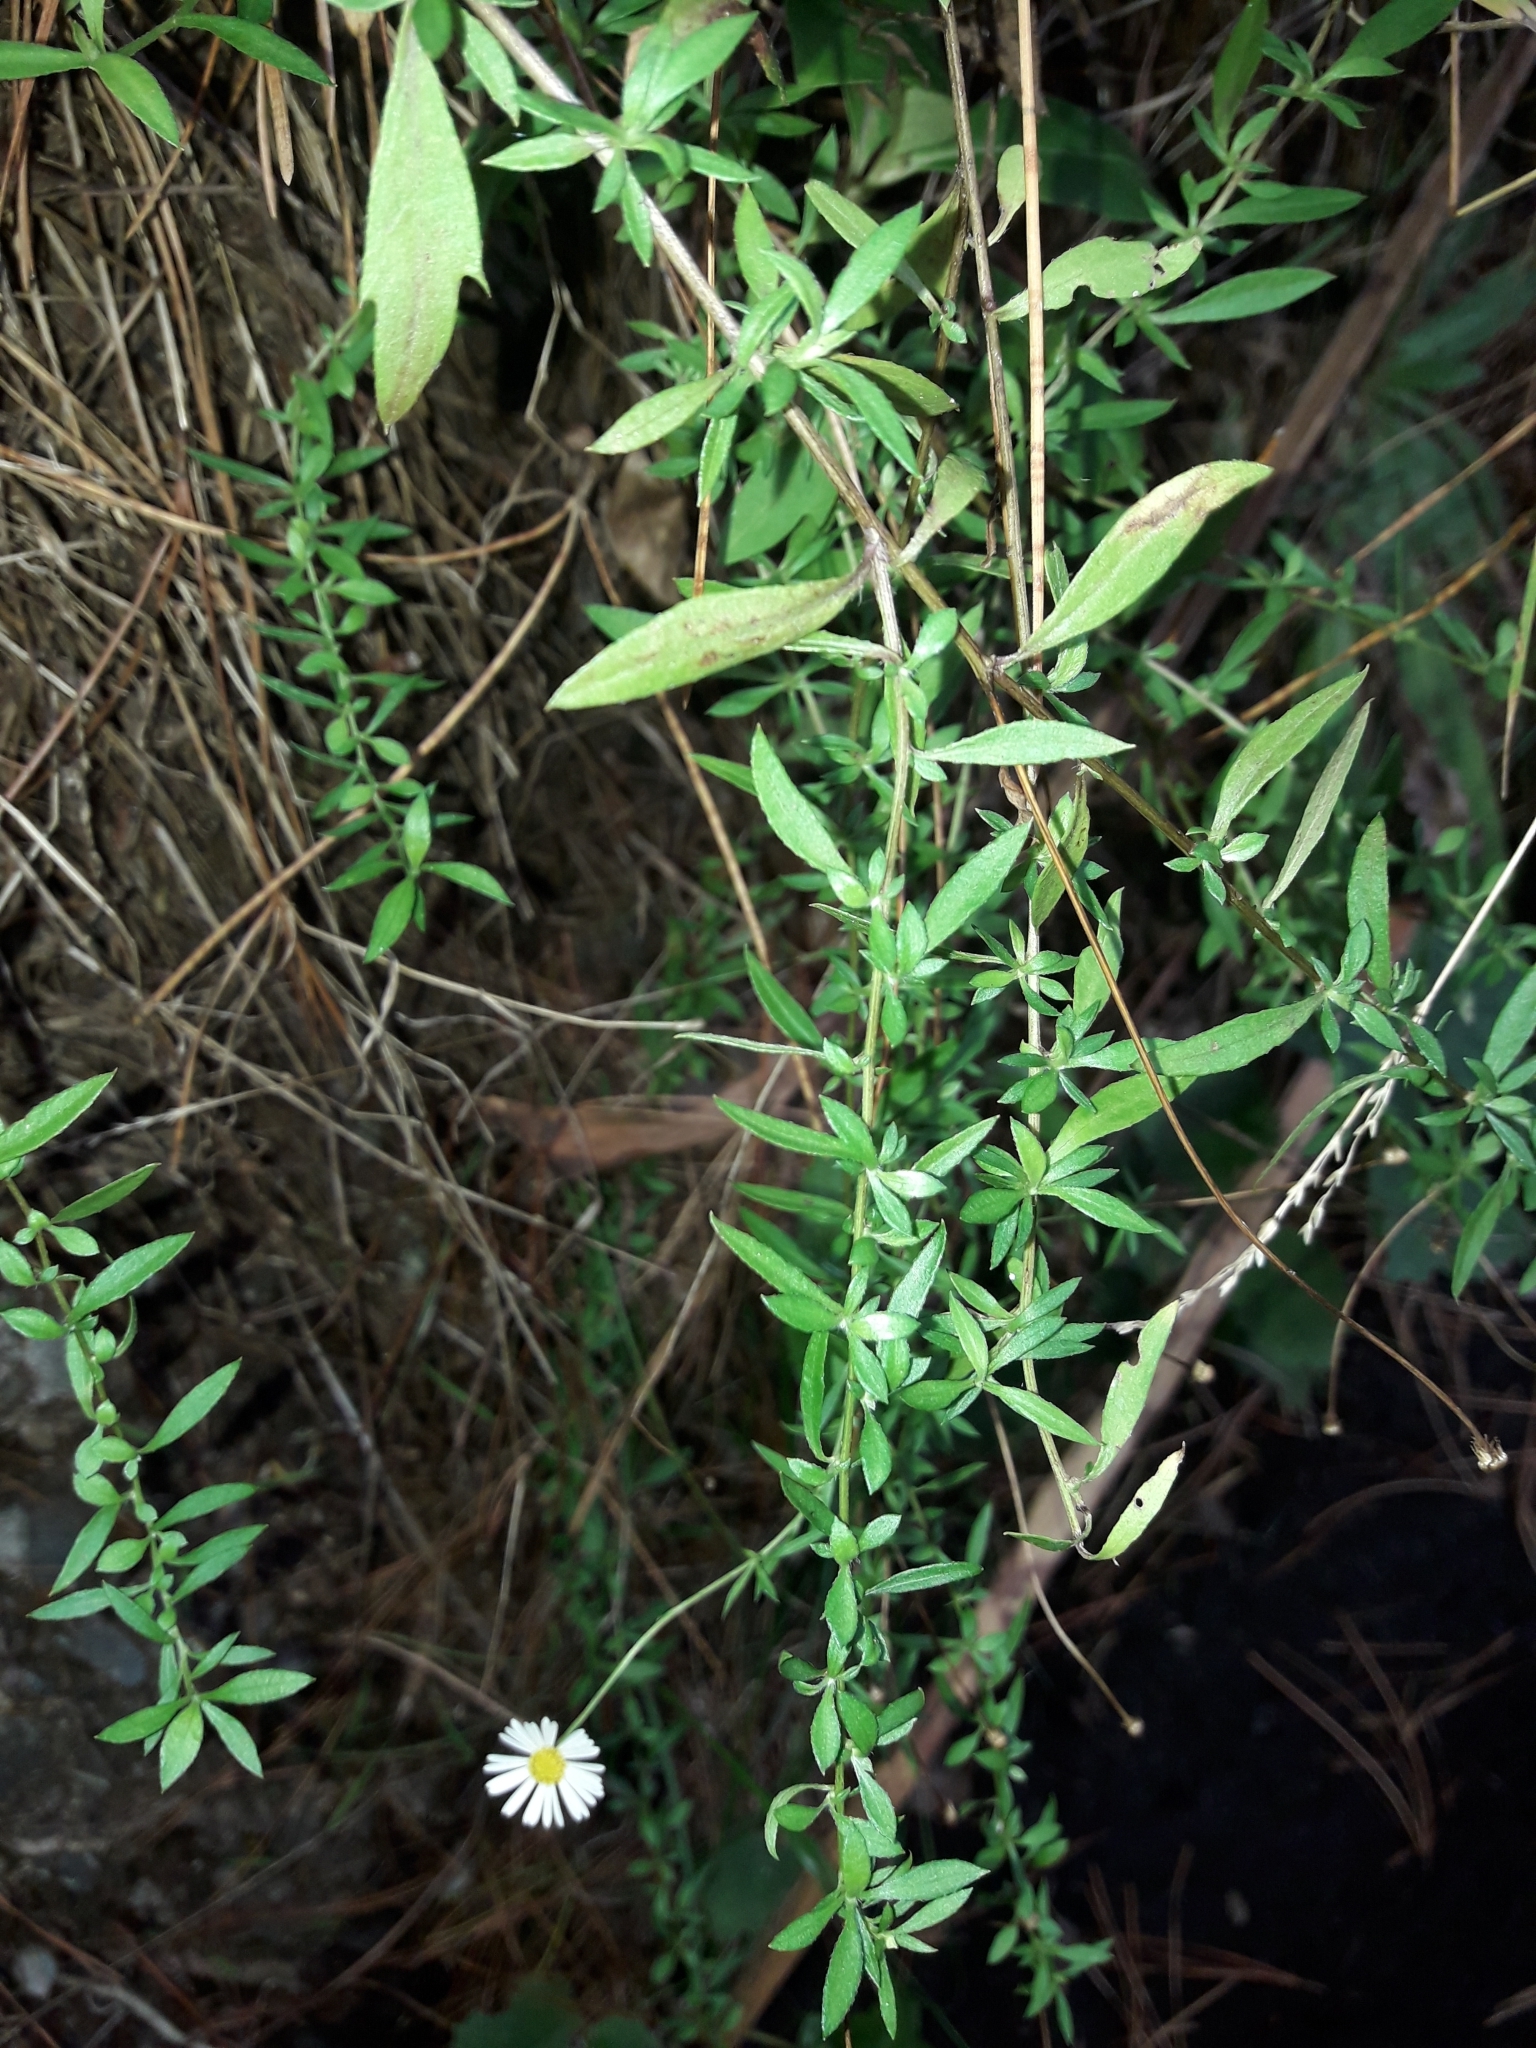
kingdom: Plantae
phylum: Tracheophyta
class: Magnoliopsida
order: Asterales
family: Asteraceae
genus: Erigeron
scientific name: Erigeron karvinskianus
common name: Mexican fleabane
